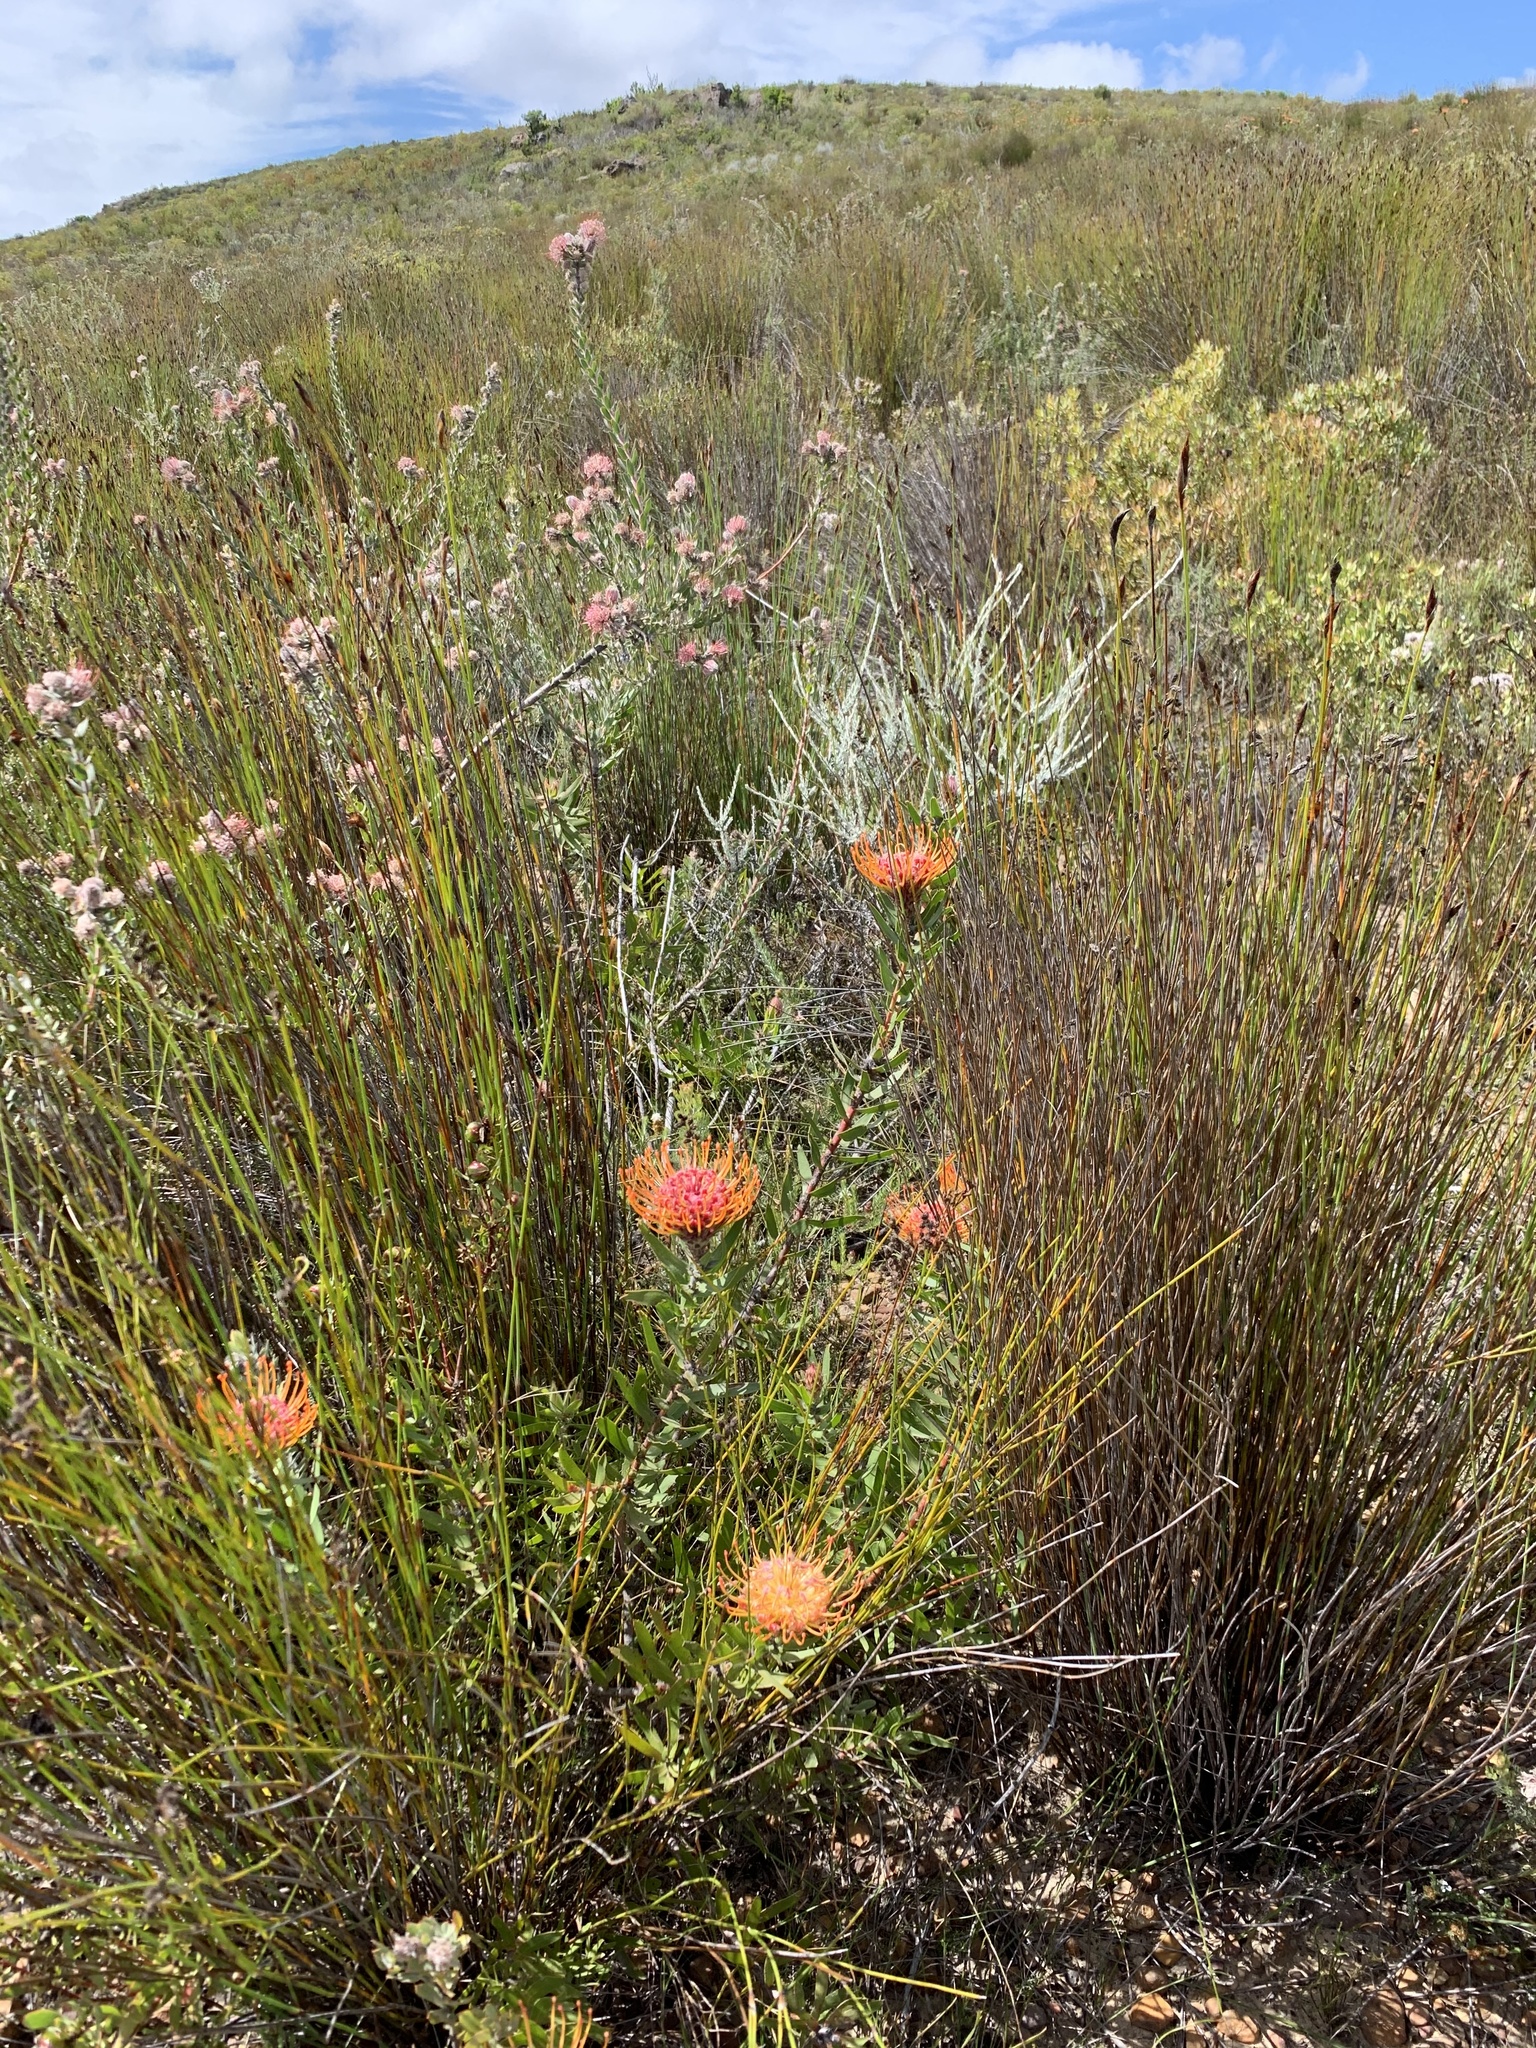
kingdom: Plantae
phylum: Tracheophyta
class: Magnoliopsida
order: Proteales
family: Proteaceae
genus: Leucospermum
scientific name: Leucospermum vestitum
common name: Silky-hair pincushion
